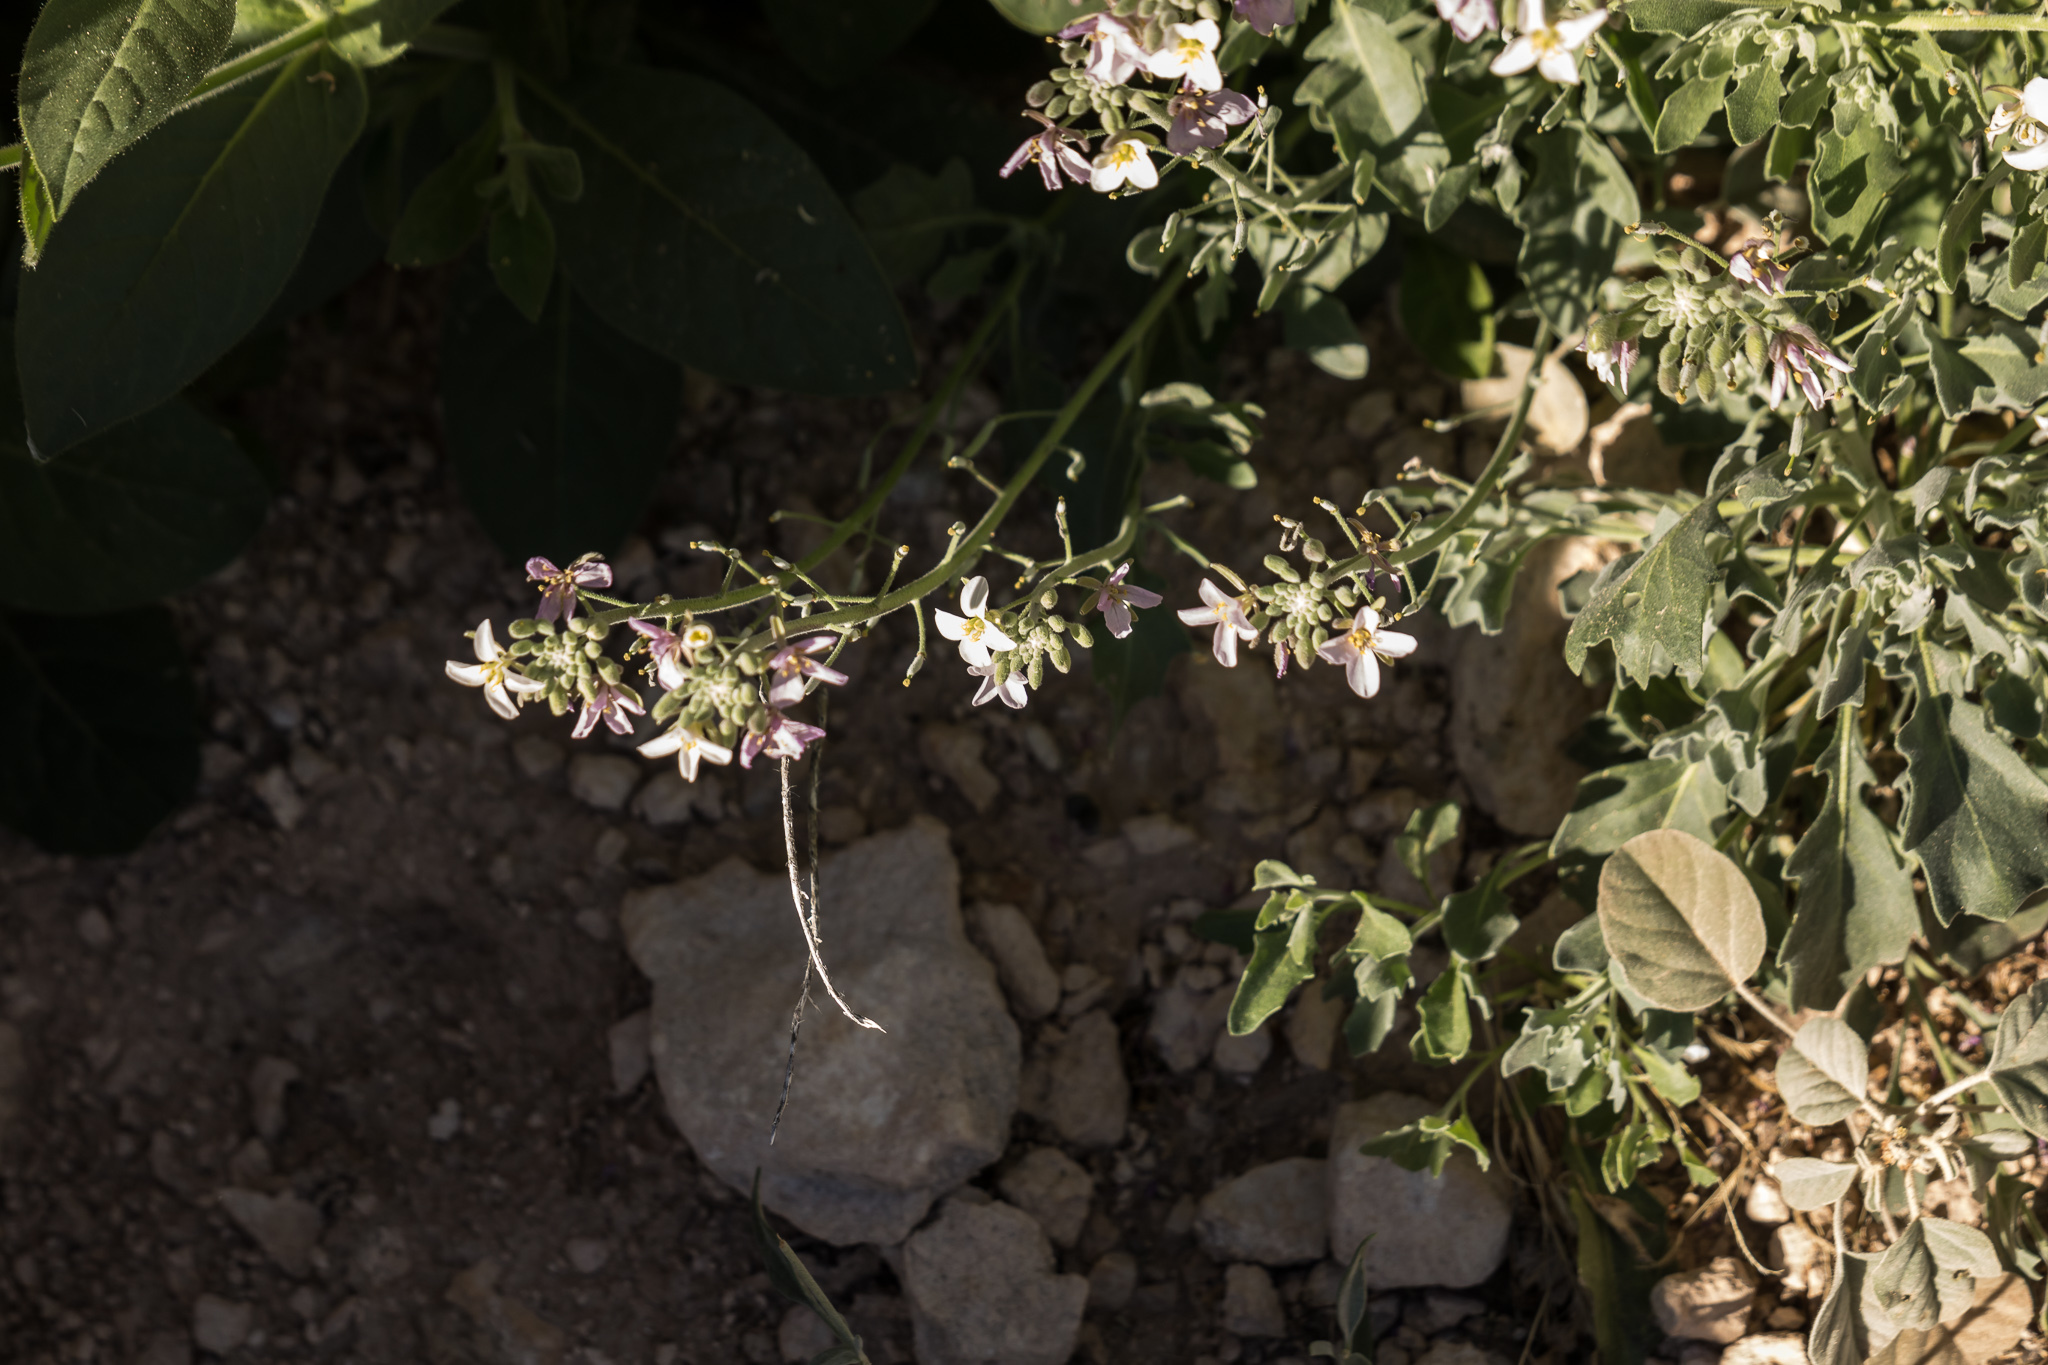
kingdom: Plantae
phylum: Tracheophyta
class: Magnoliopsida
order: Brassicales
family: Brassicaceae
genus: Nerisyrenia
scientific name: Nerisyrenia camporum
